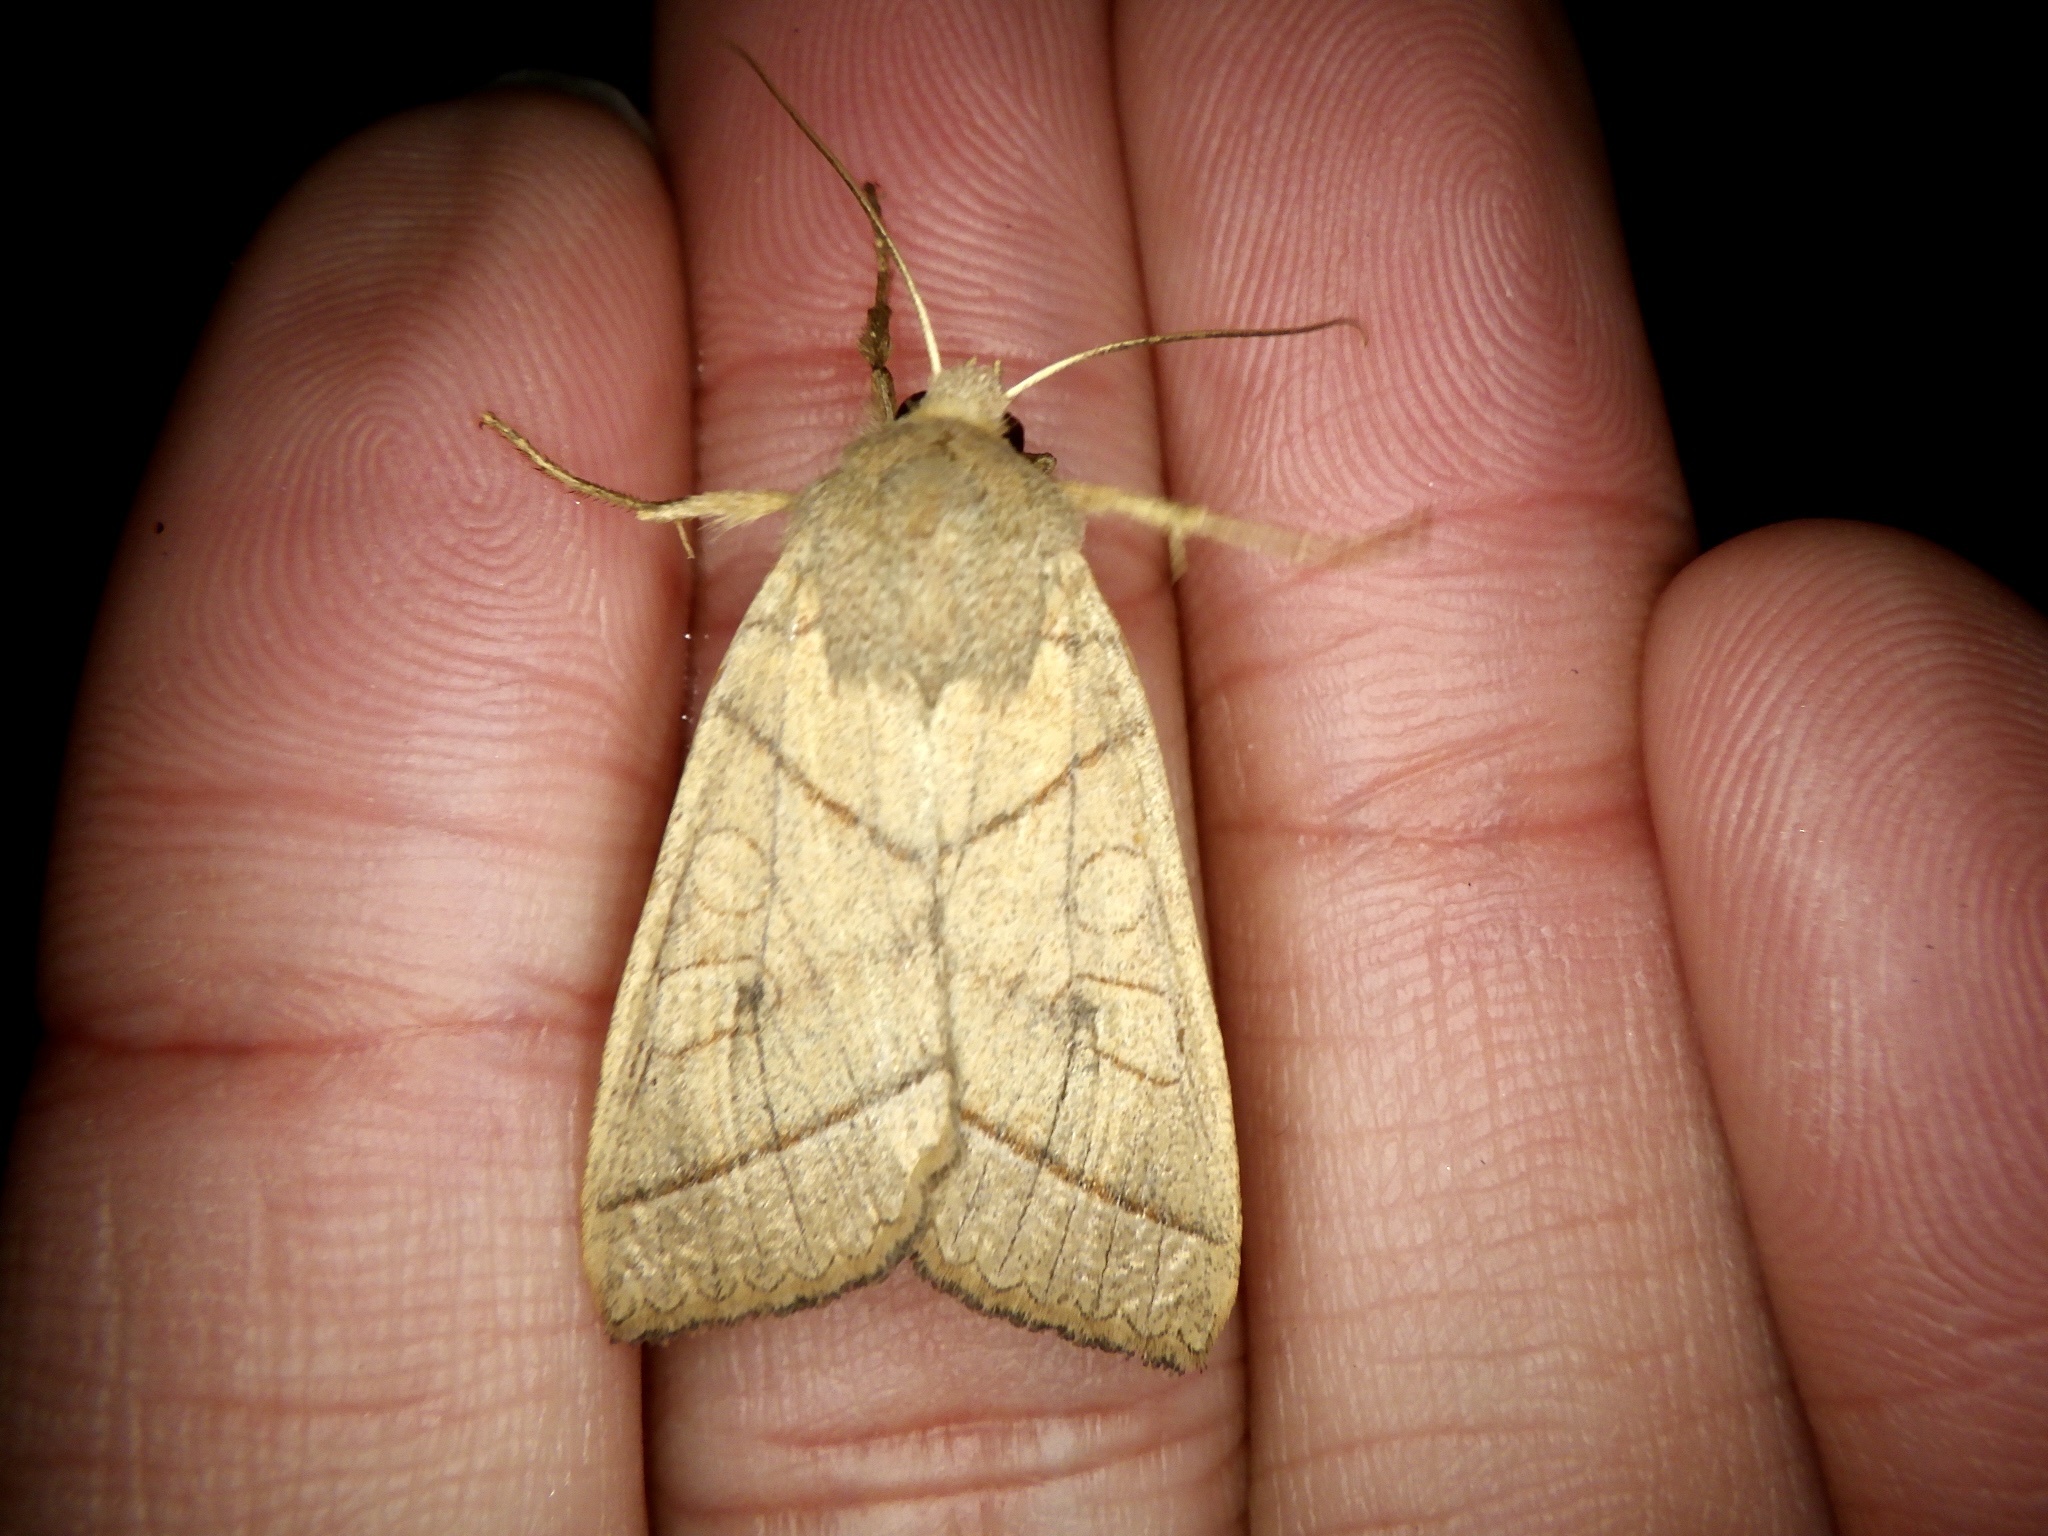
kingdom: Animalia
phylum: Arthropoda
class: Insecta
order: Lepidoptera
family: Noctuidae
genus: Telorta
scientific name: Telorta divergens
